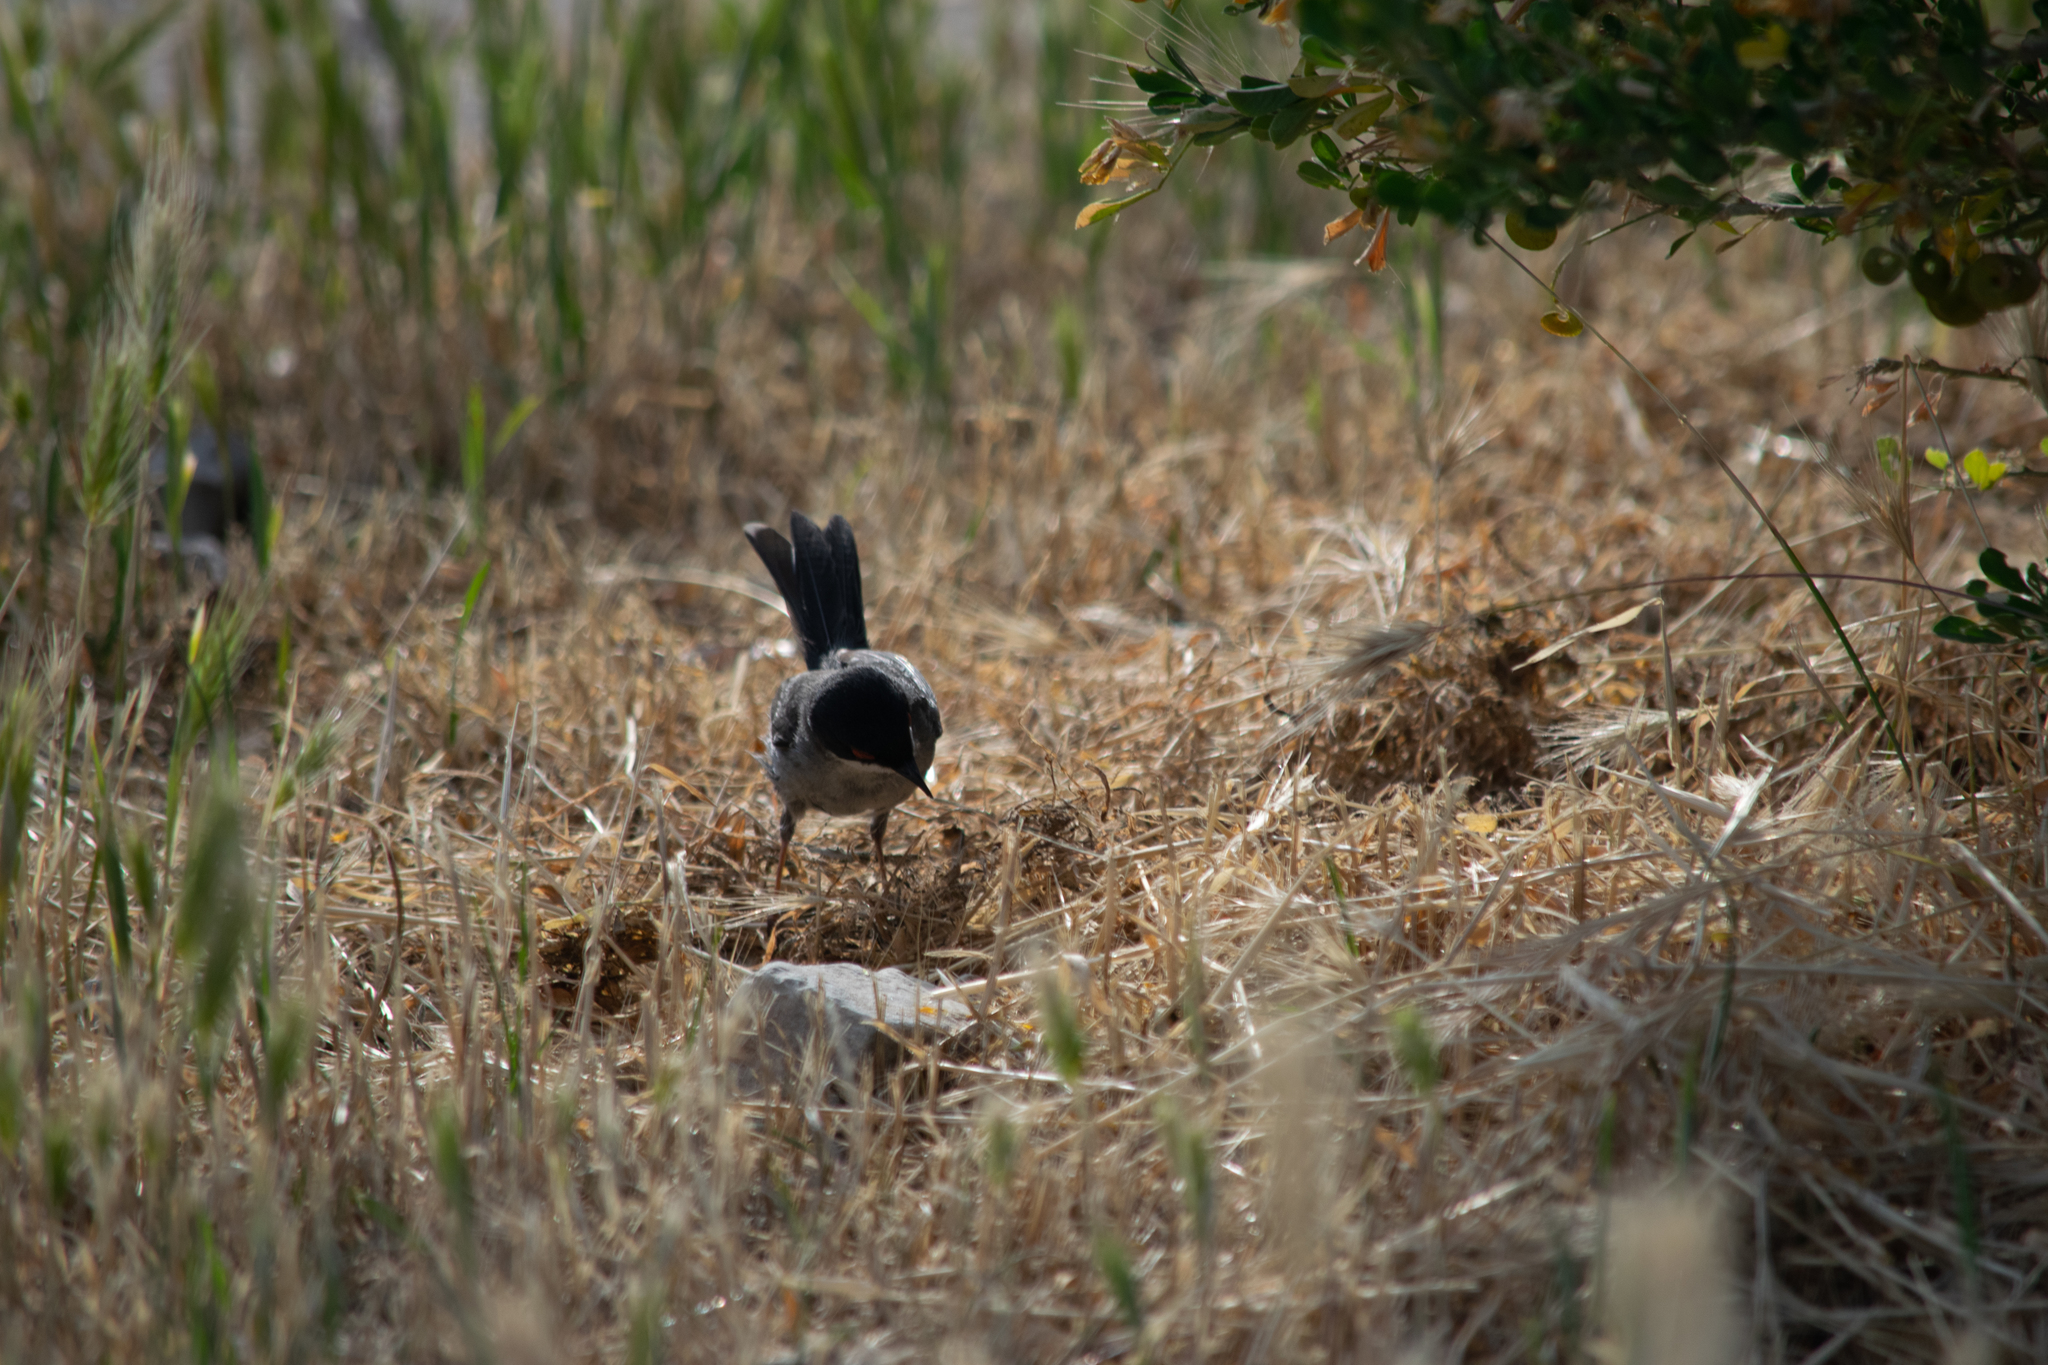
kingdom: Animalia
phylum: Chordata
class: Aves
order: Passeriformes
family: Sylviidae
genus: Curruca
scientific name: Curruca melanocephala
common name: Sardinian warbler
